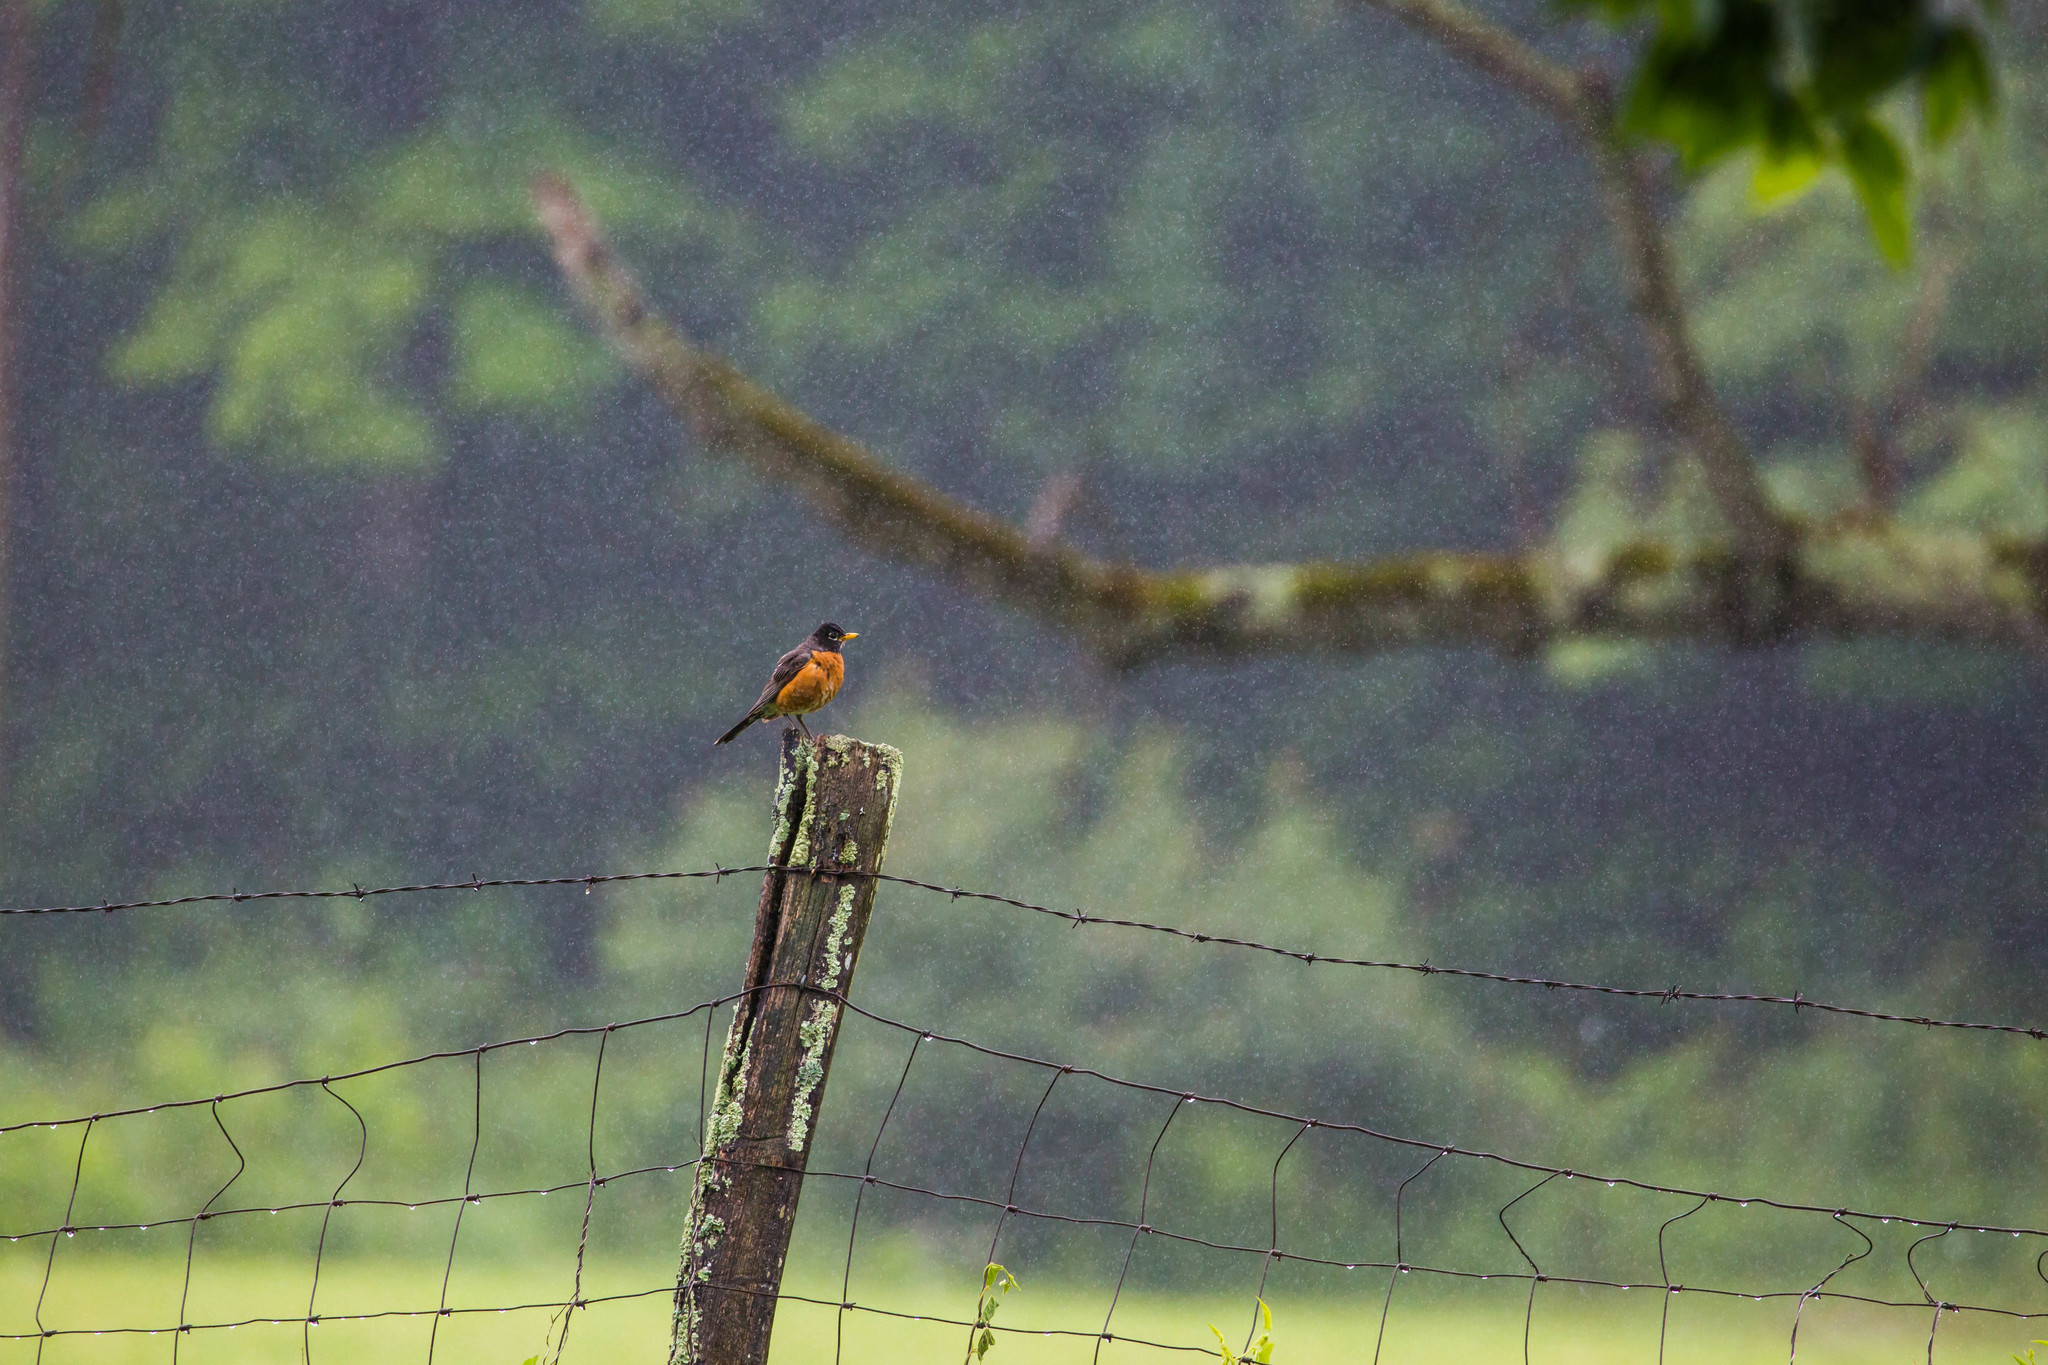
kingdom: Animalia
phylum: Chordata
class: Aves
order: Passeriformes
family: Turdidae
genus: Turdus
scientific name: Turdus migratorius
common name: American robin
